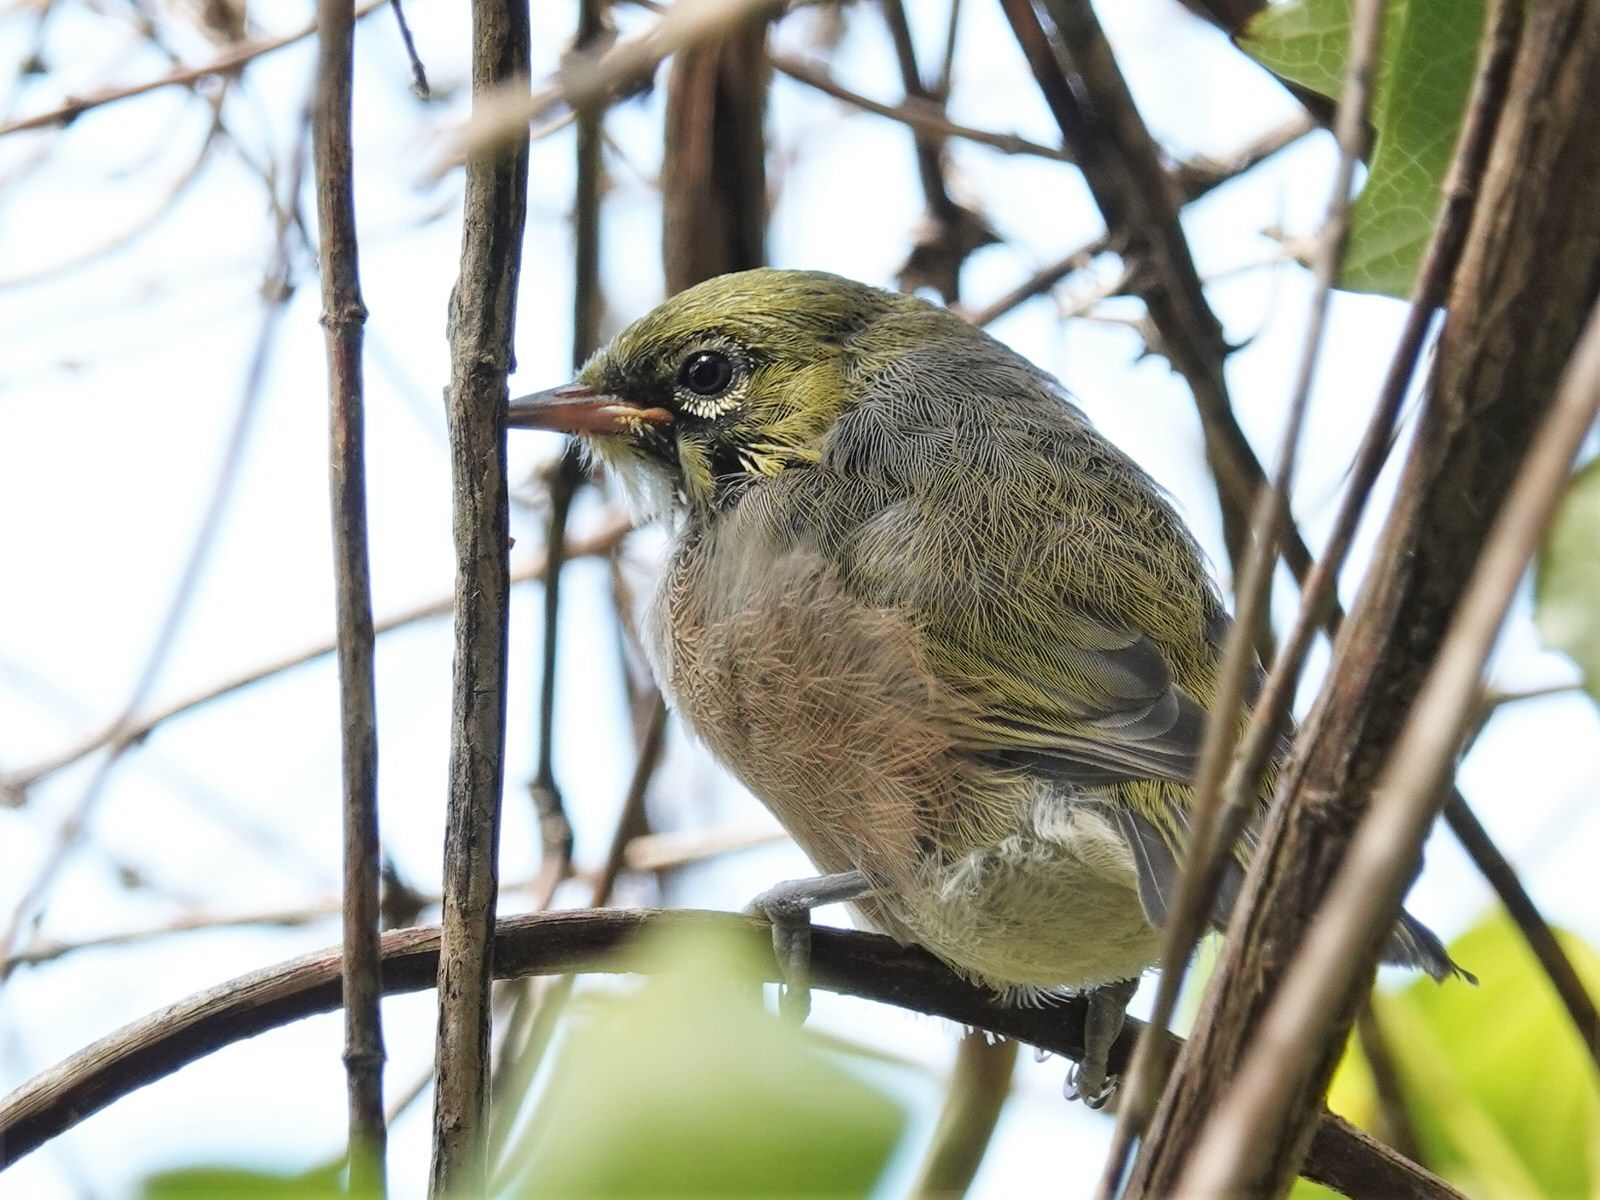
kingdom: Animalia
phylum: Chordata
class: Aves
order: Passeriformes
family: Zosteropidae
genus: Zosterops
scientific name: Zosterops lateralis
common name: Silvereye
